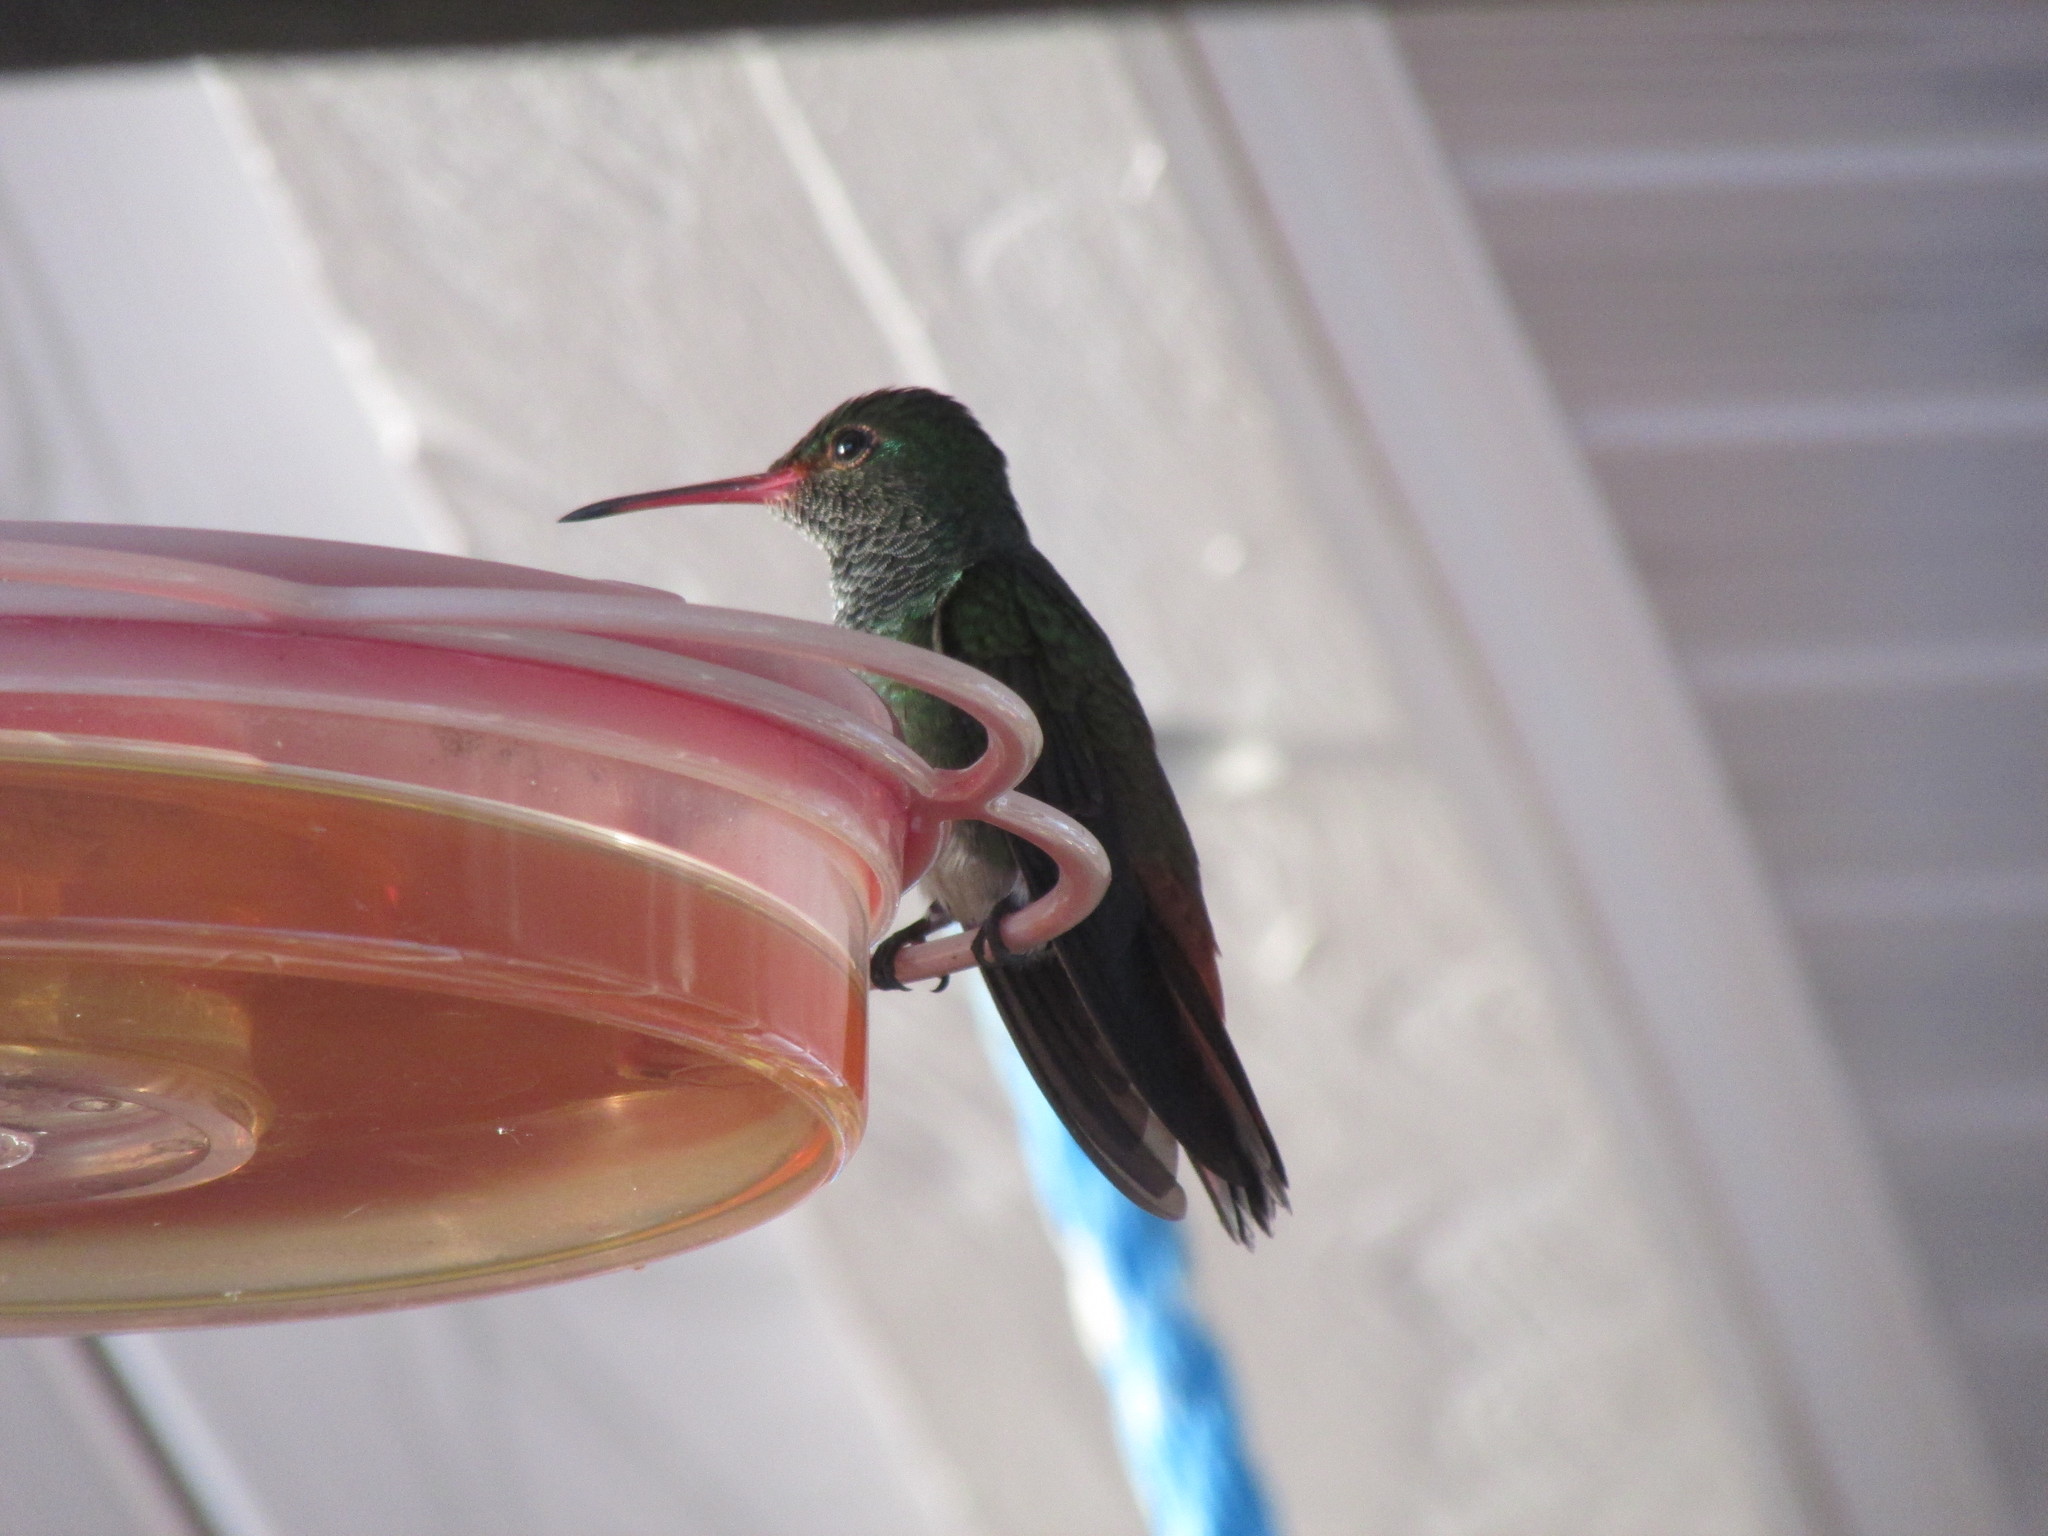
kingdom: Animalia
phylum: Chordata
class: Aves
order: Apodiformes
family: Trochilidae
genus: Amazilia
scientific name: Amazilia tzacatl
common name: Rufous-tailed hummingbird
